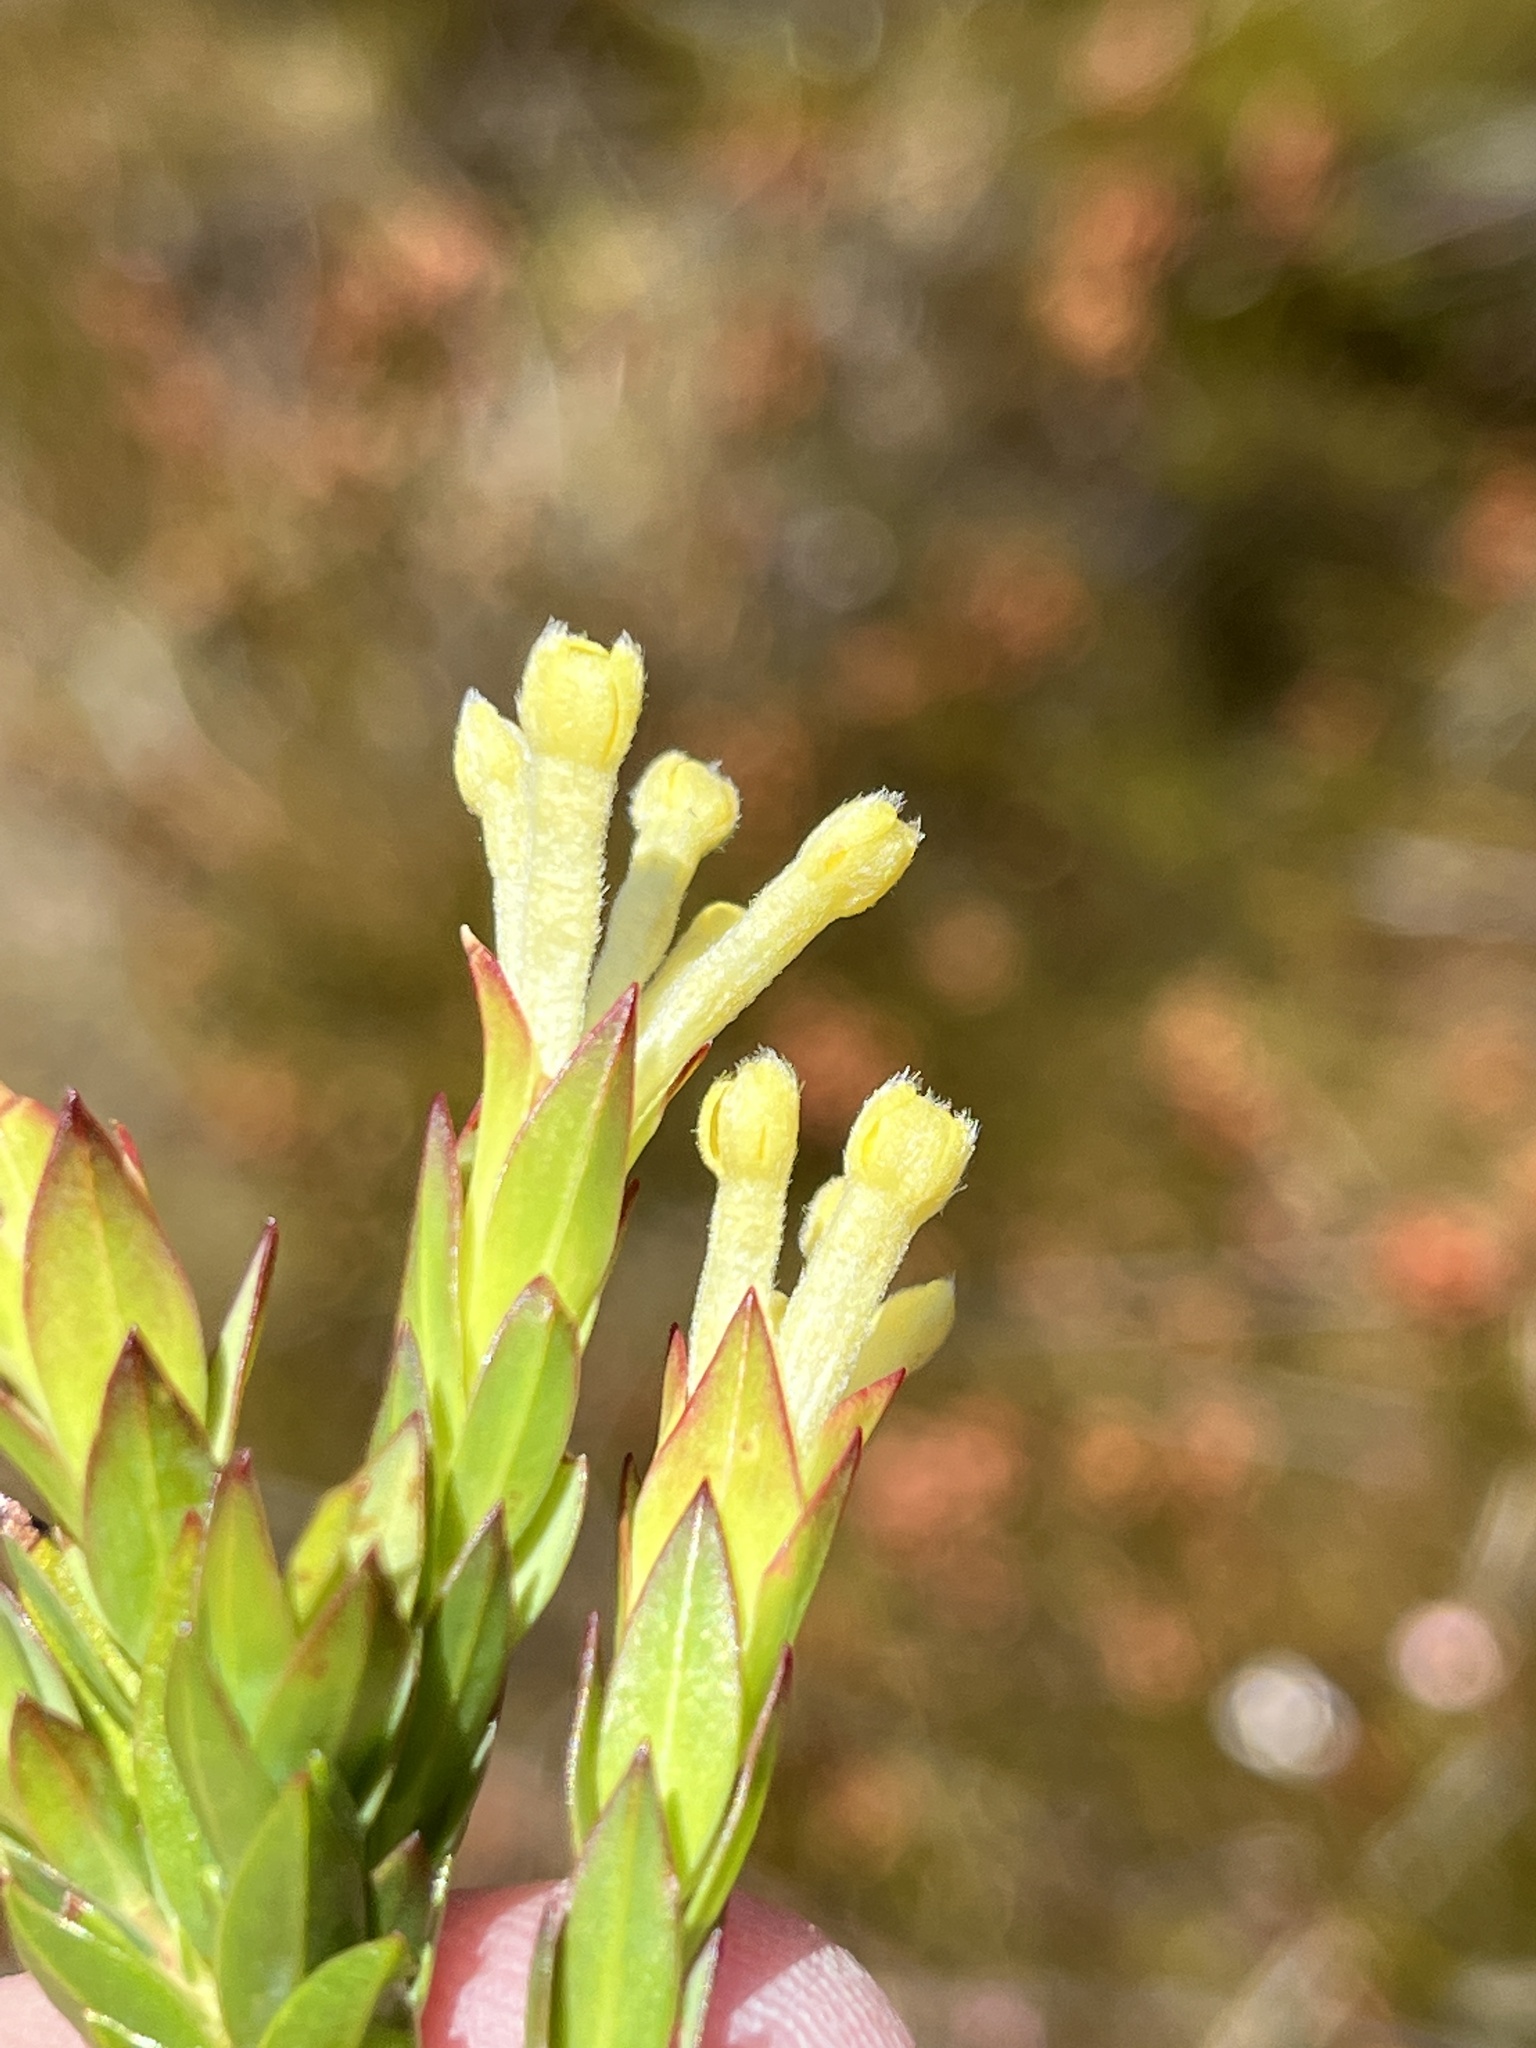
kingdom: Plantae
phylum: Tracheophyta
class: Magnoliopsida
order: Malvales
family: Thymelaeaceae
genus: Gnidia
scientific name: Gnidia oppositifolia
